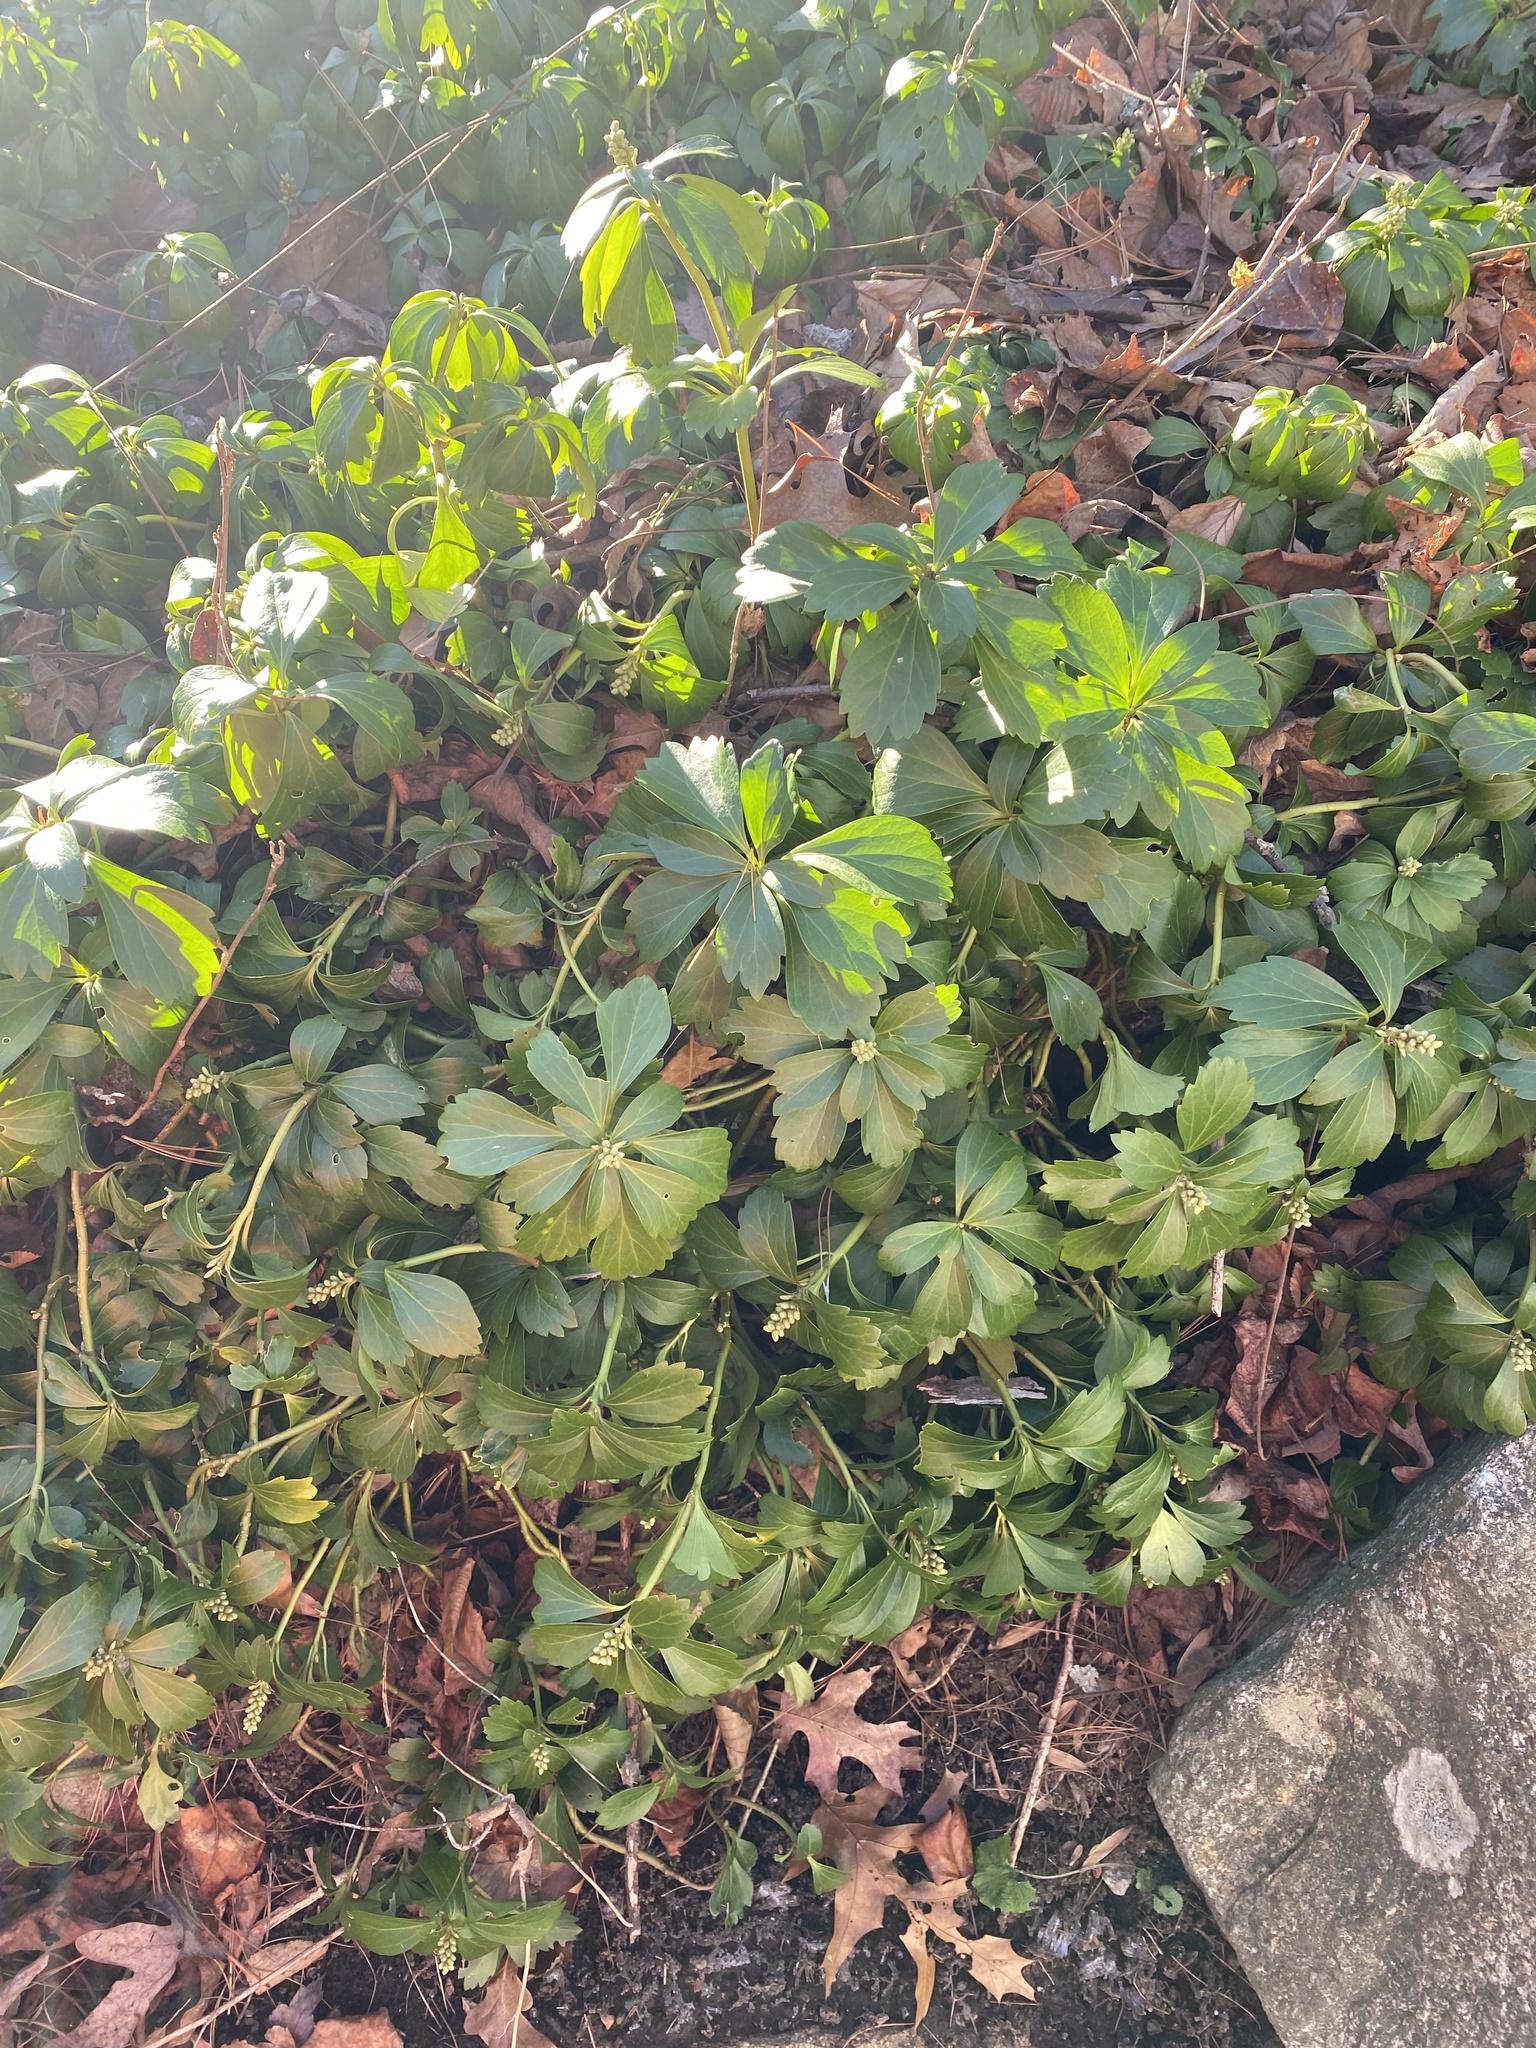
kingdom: Plantae
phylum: Tracheophyta
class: Magnoliopsida
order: Buxales
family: Buxaceae
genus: Pachysandra
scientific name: Pachysandra terminalis
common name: Japanese pachysandra
